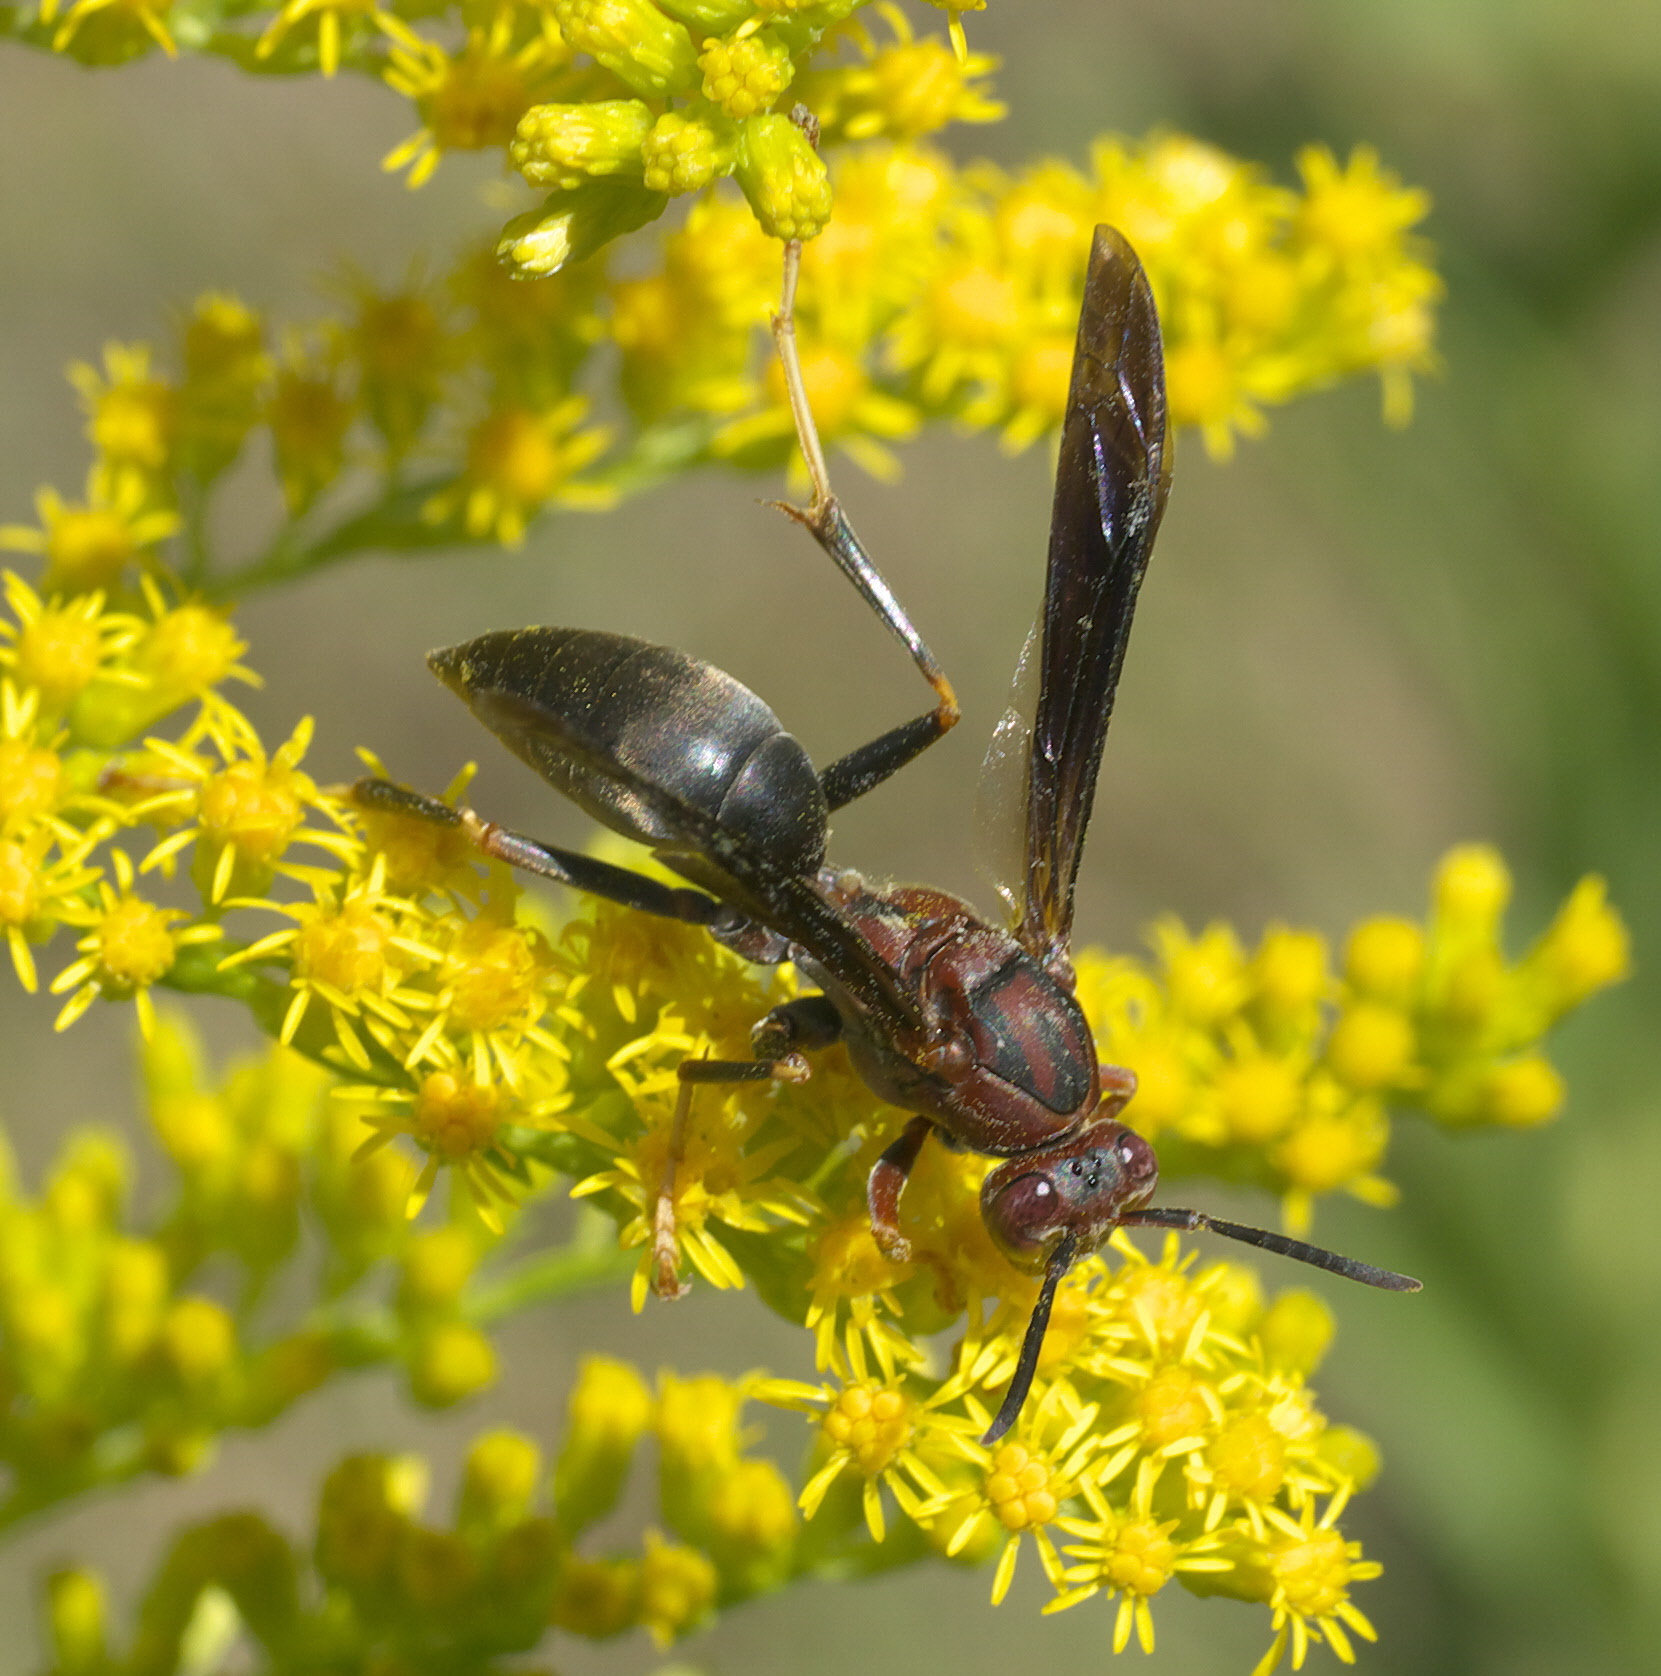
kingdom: Animalia
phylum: Arthropoda
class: Insecta
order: Hymenoptera
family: Eumenidae
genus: Polistes
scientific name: Polistes metricus
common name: Metric paper wasp
